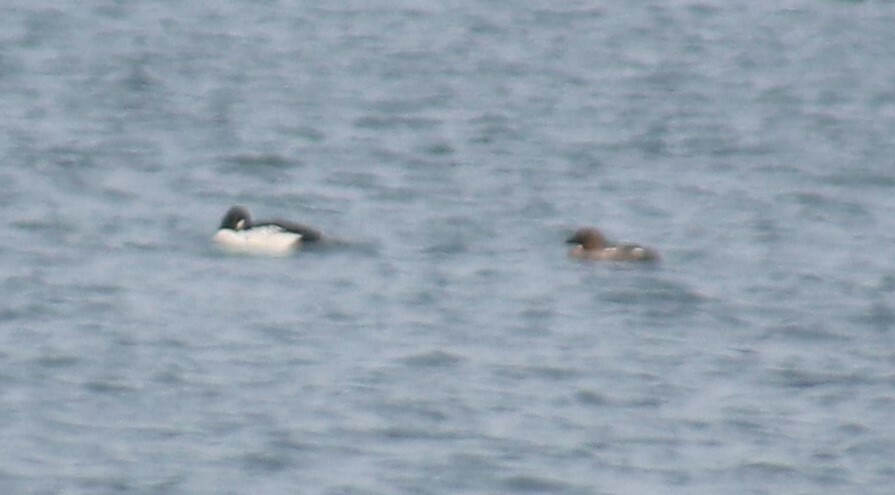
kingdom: Animalia
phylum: Chordata
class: Aves
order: Anseriformes
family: Anatidae
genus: Bucephala
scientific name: Bucephala clangula
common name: Common goldeneye
